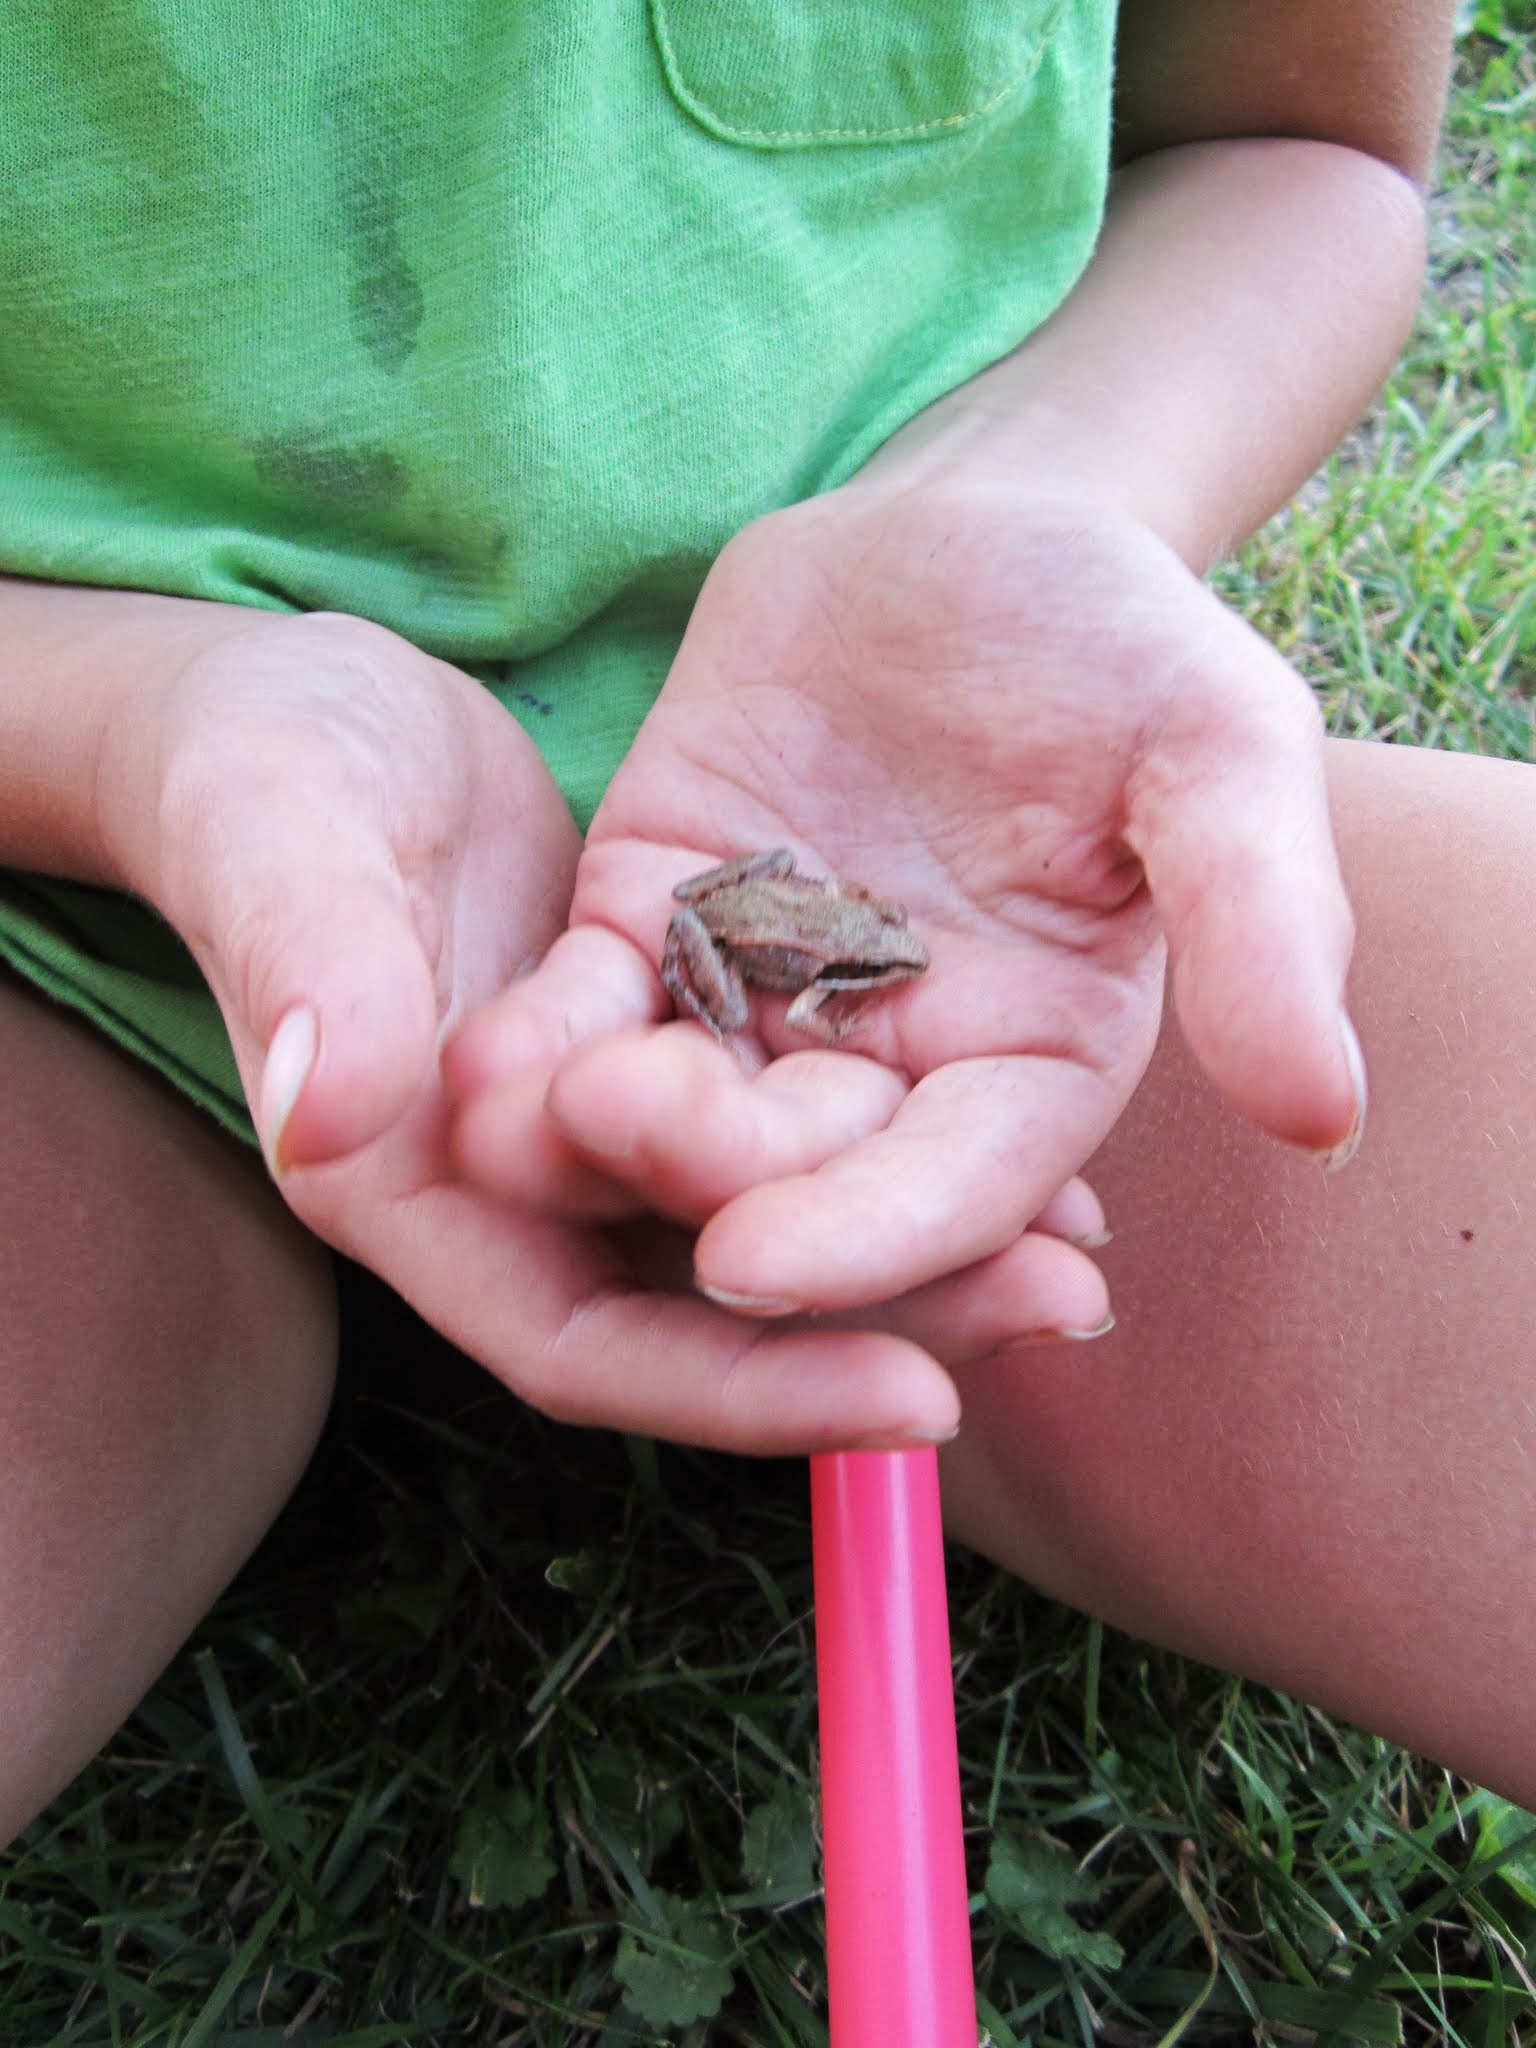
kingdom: Animalia
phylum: Chordata
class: Amphibia
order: Anura
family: Ranidae
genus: Lithobates
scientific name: Lithobates sylvaticus
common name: Wood frog
